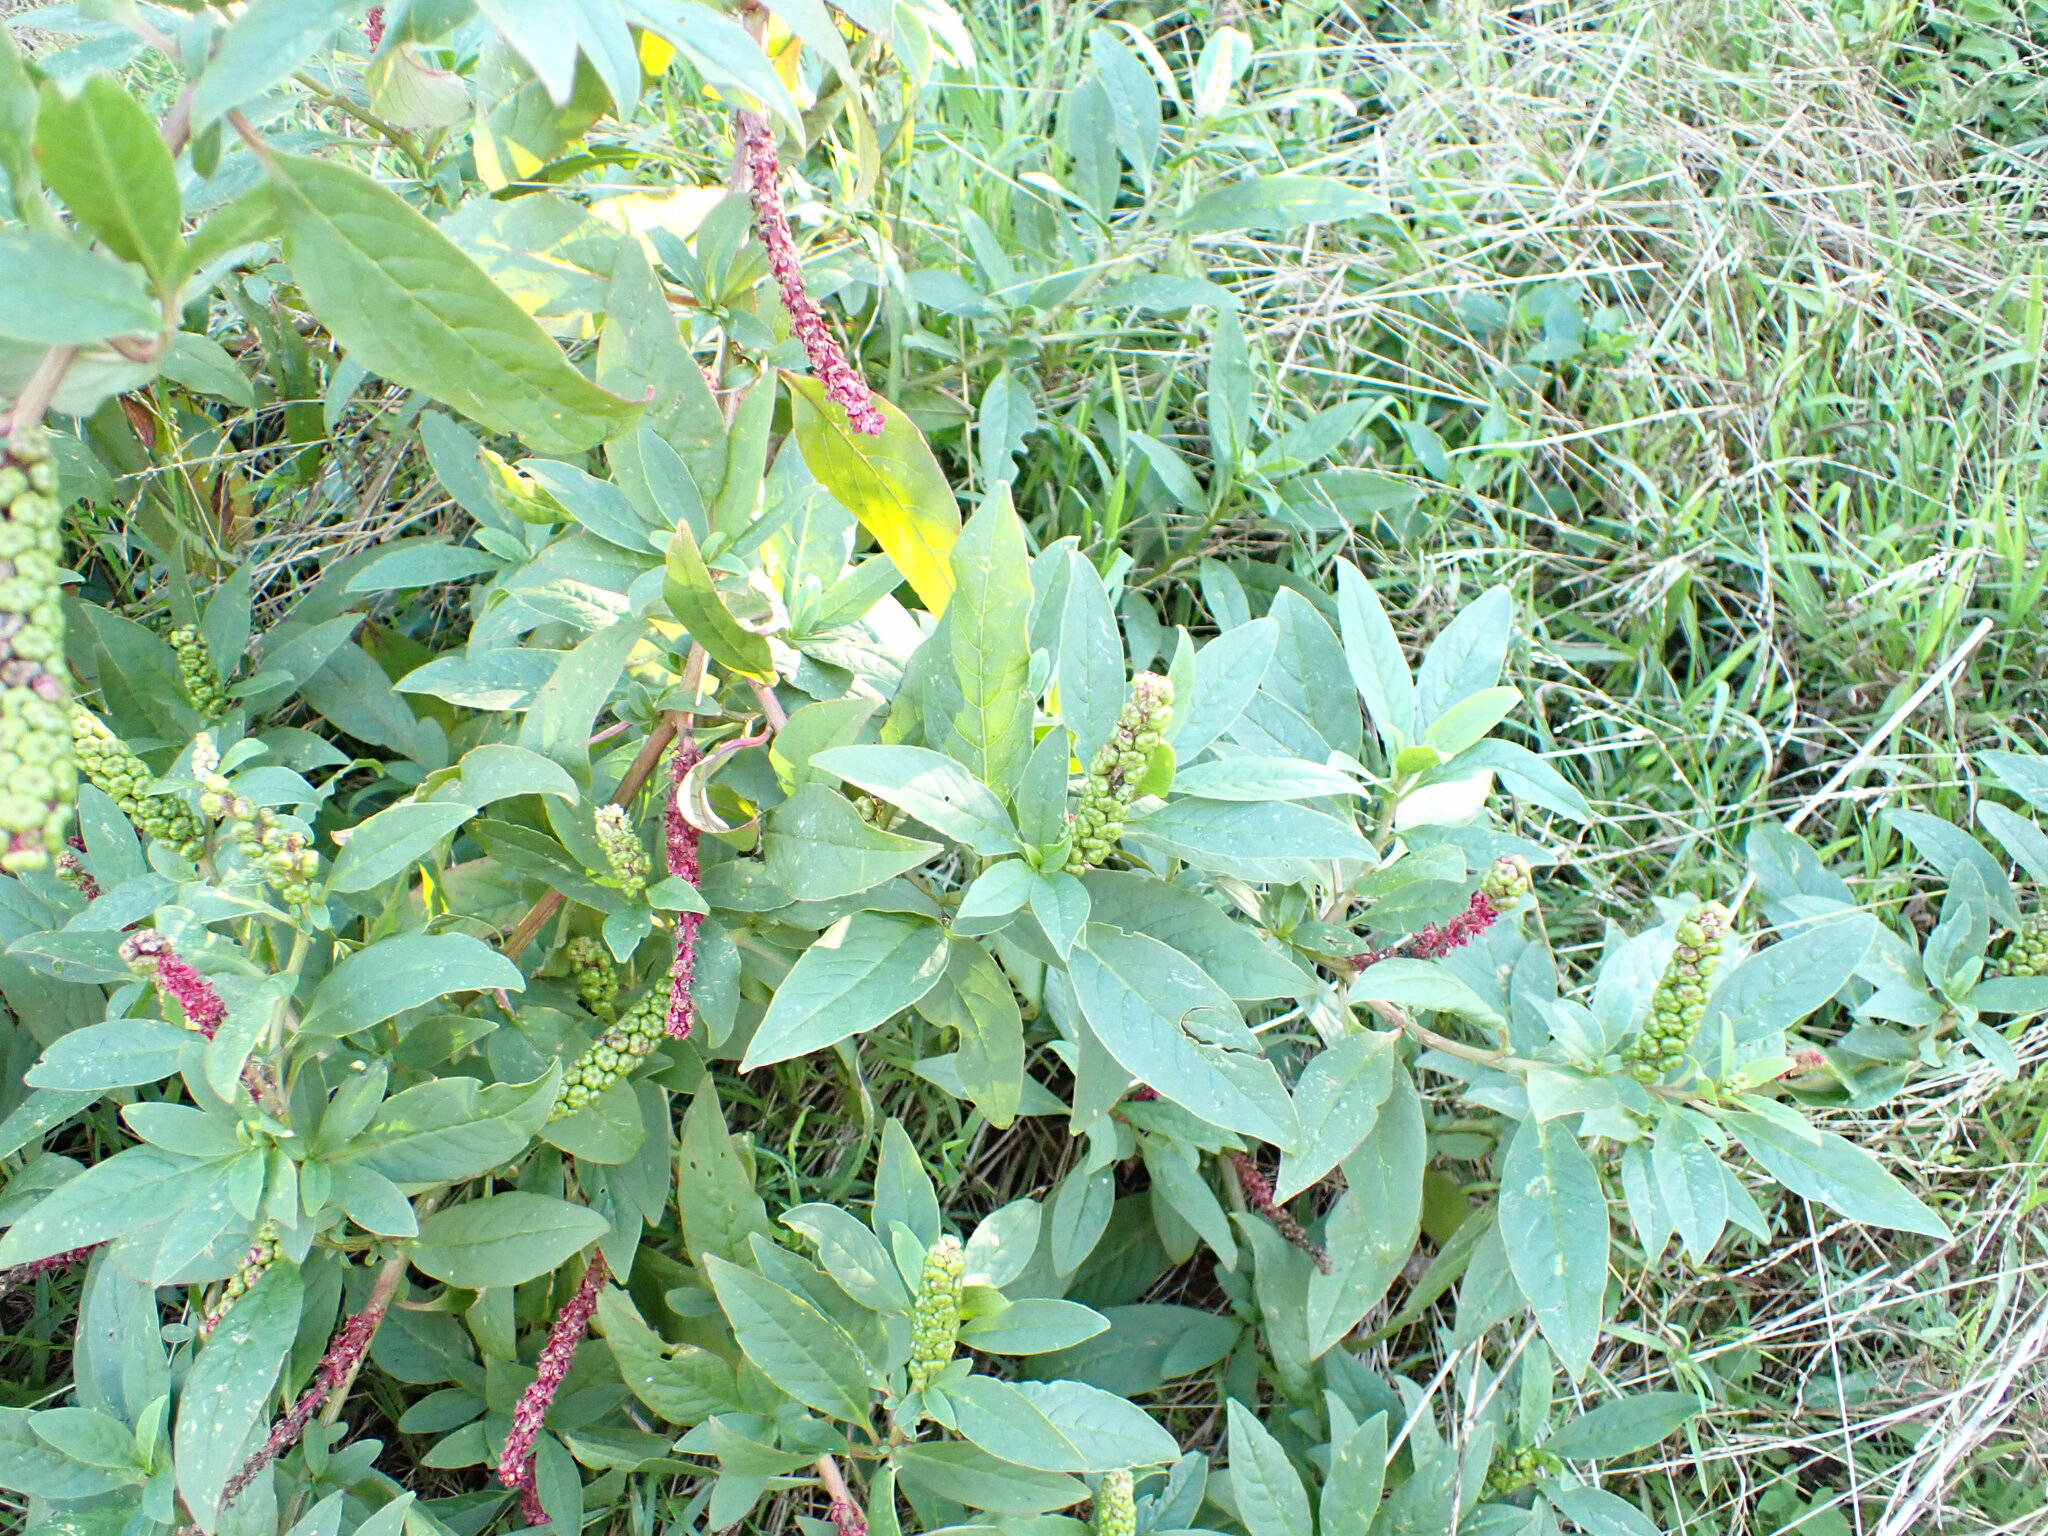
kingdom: Plantae
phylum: Tracheophyta
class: Magnoliopsida
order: Caryophyllales
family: Phytolaccaceae
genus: Phytolacca
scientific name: Phytolacca icosandra
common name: Button pokeweed
